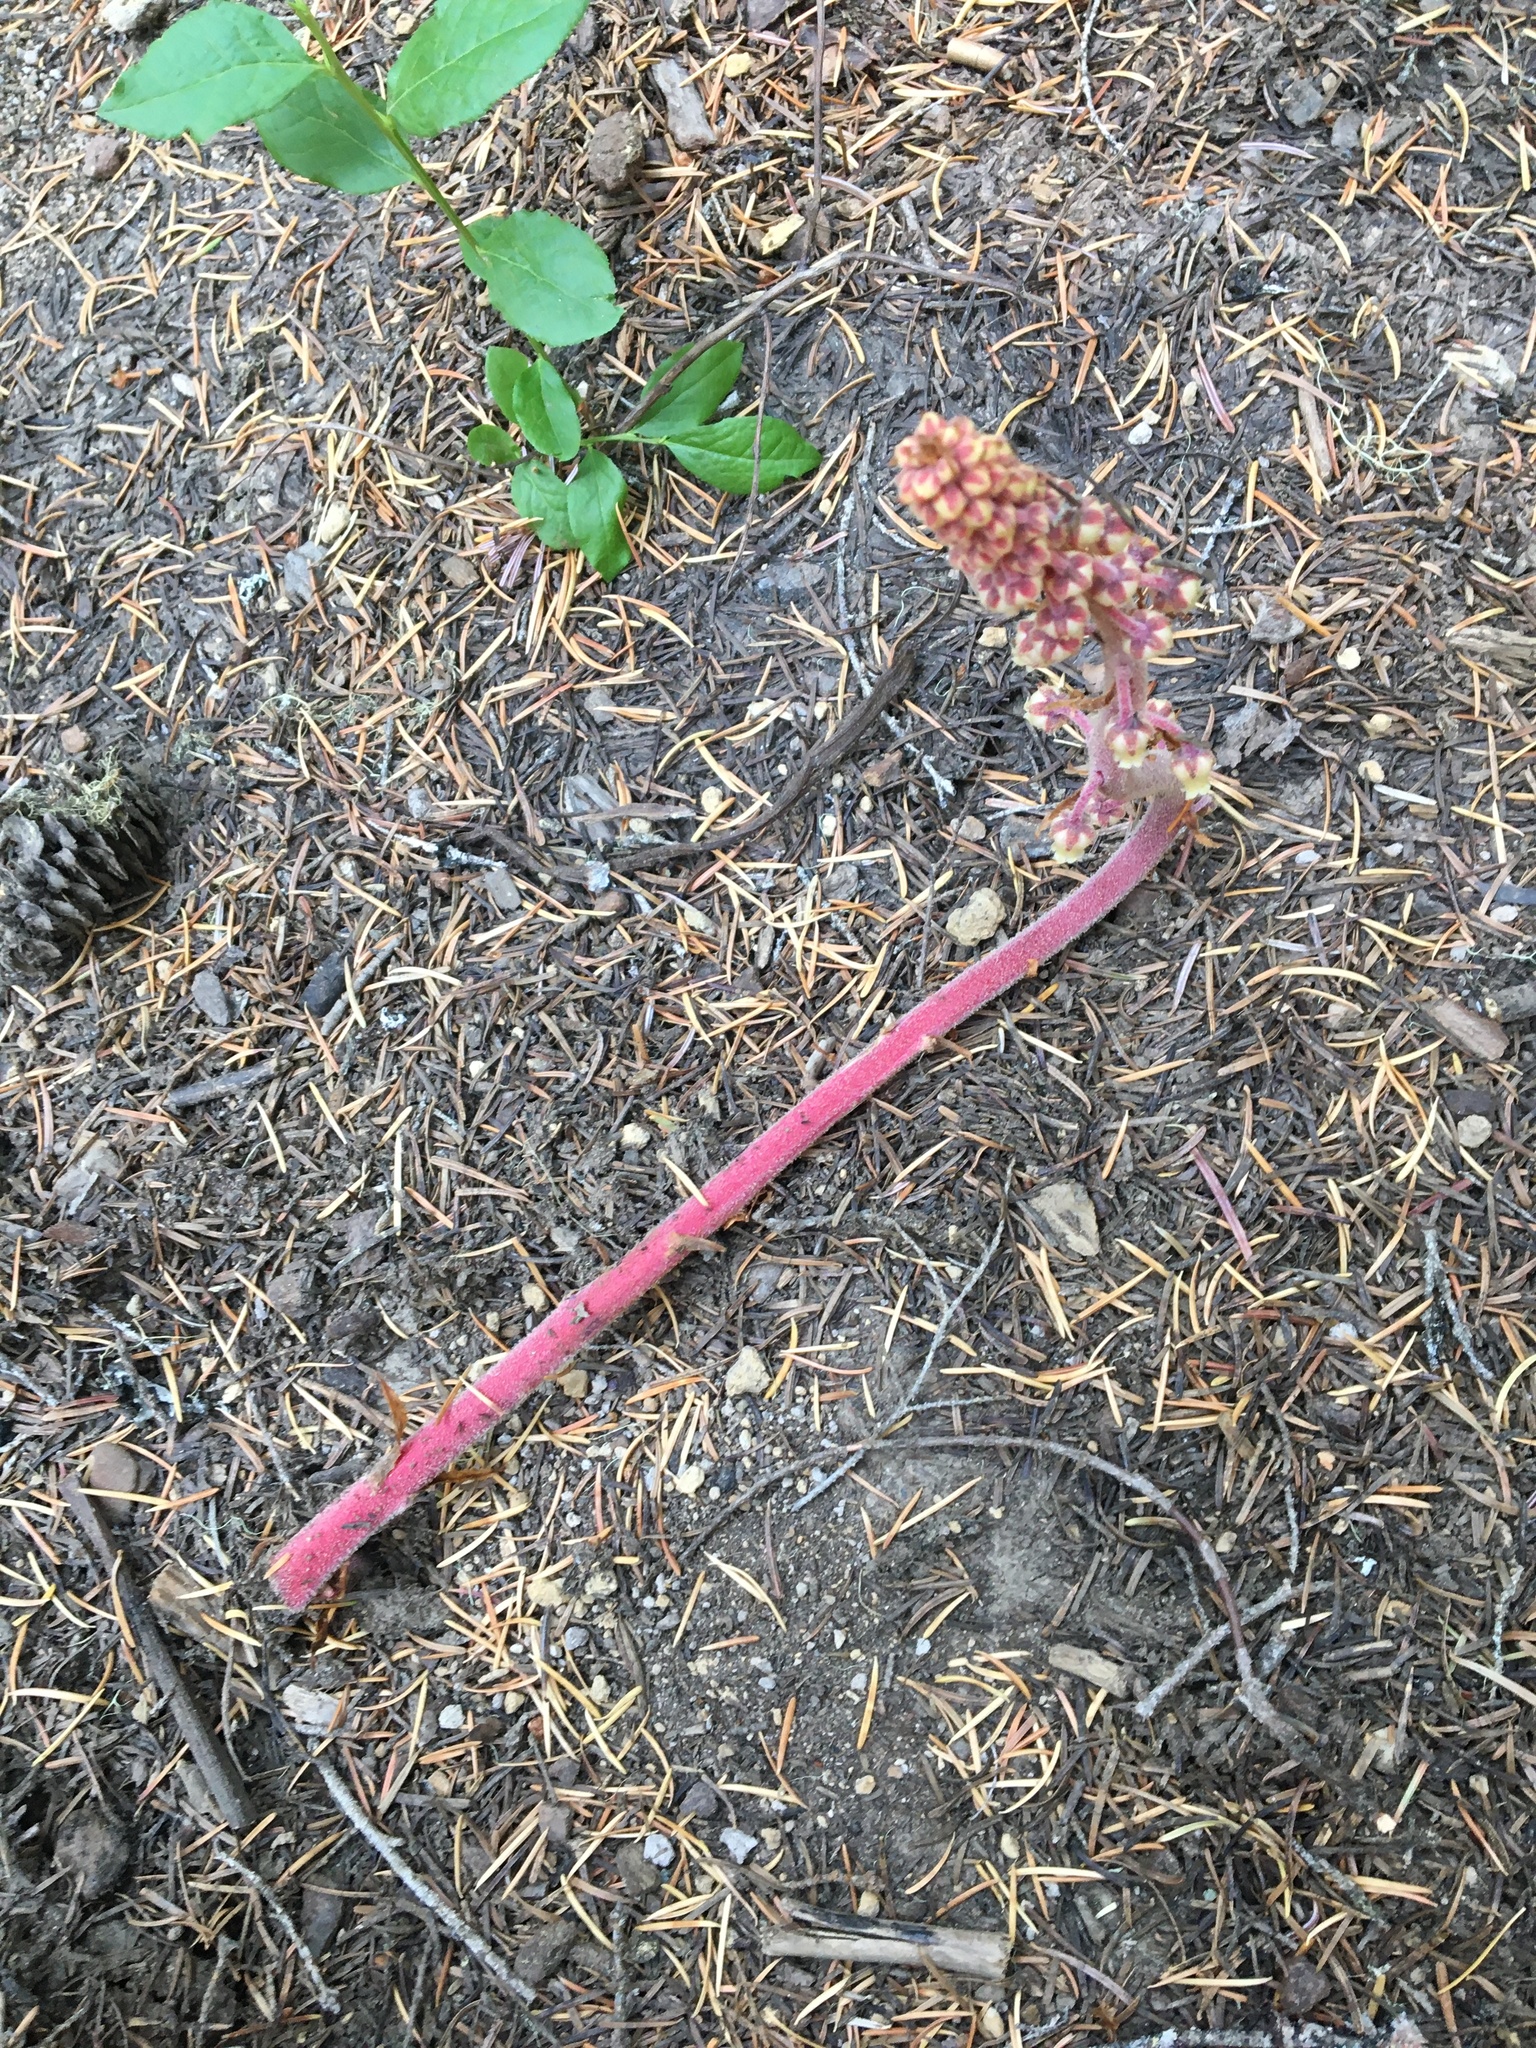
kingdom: Plantae
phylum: Tracheophyta
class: Magnoliopsida
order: Ericales
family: Ericaceae
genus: Pterospora
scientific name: Pterospora andromedea
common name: Giant bird's-nest
